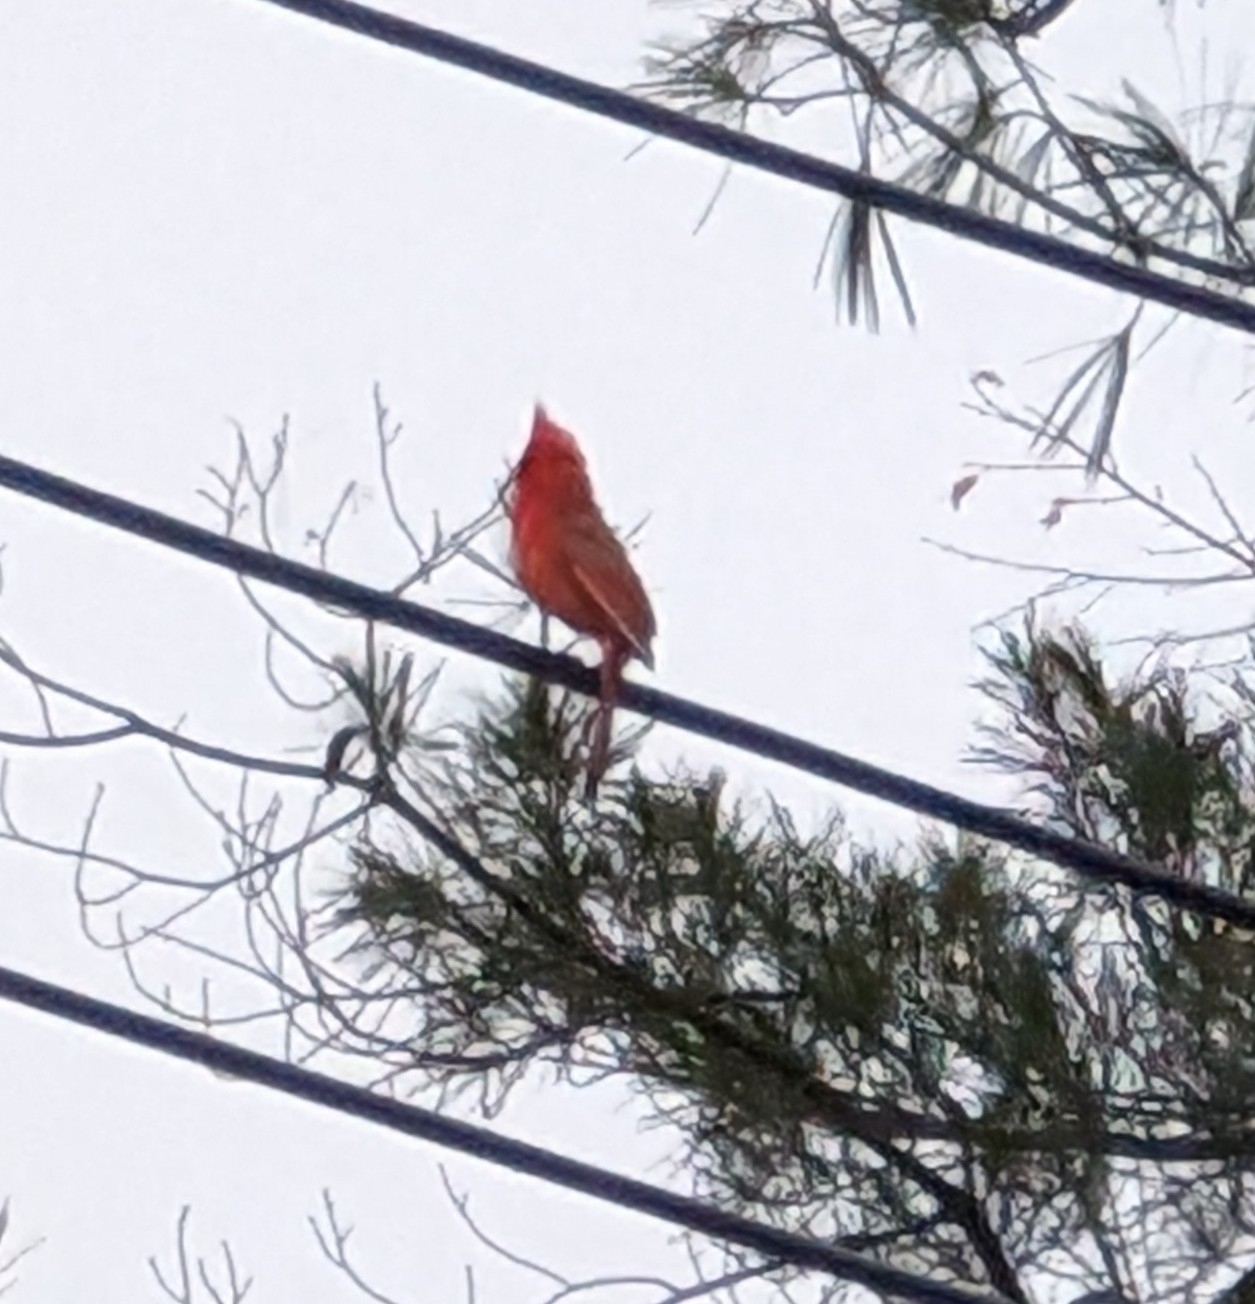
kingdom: Animalia
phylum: Chordata
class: Aves
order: Passeriformes
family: Cardinalidae
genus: Cardinalis
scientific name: Cardinalis cardinalis
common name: Northern cardinal
